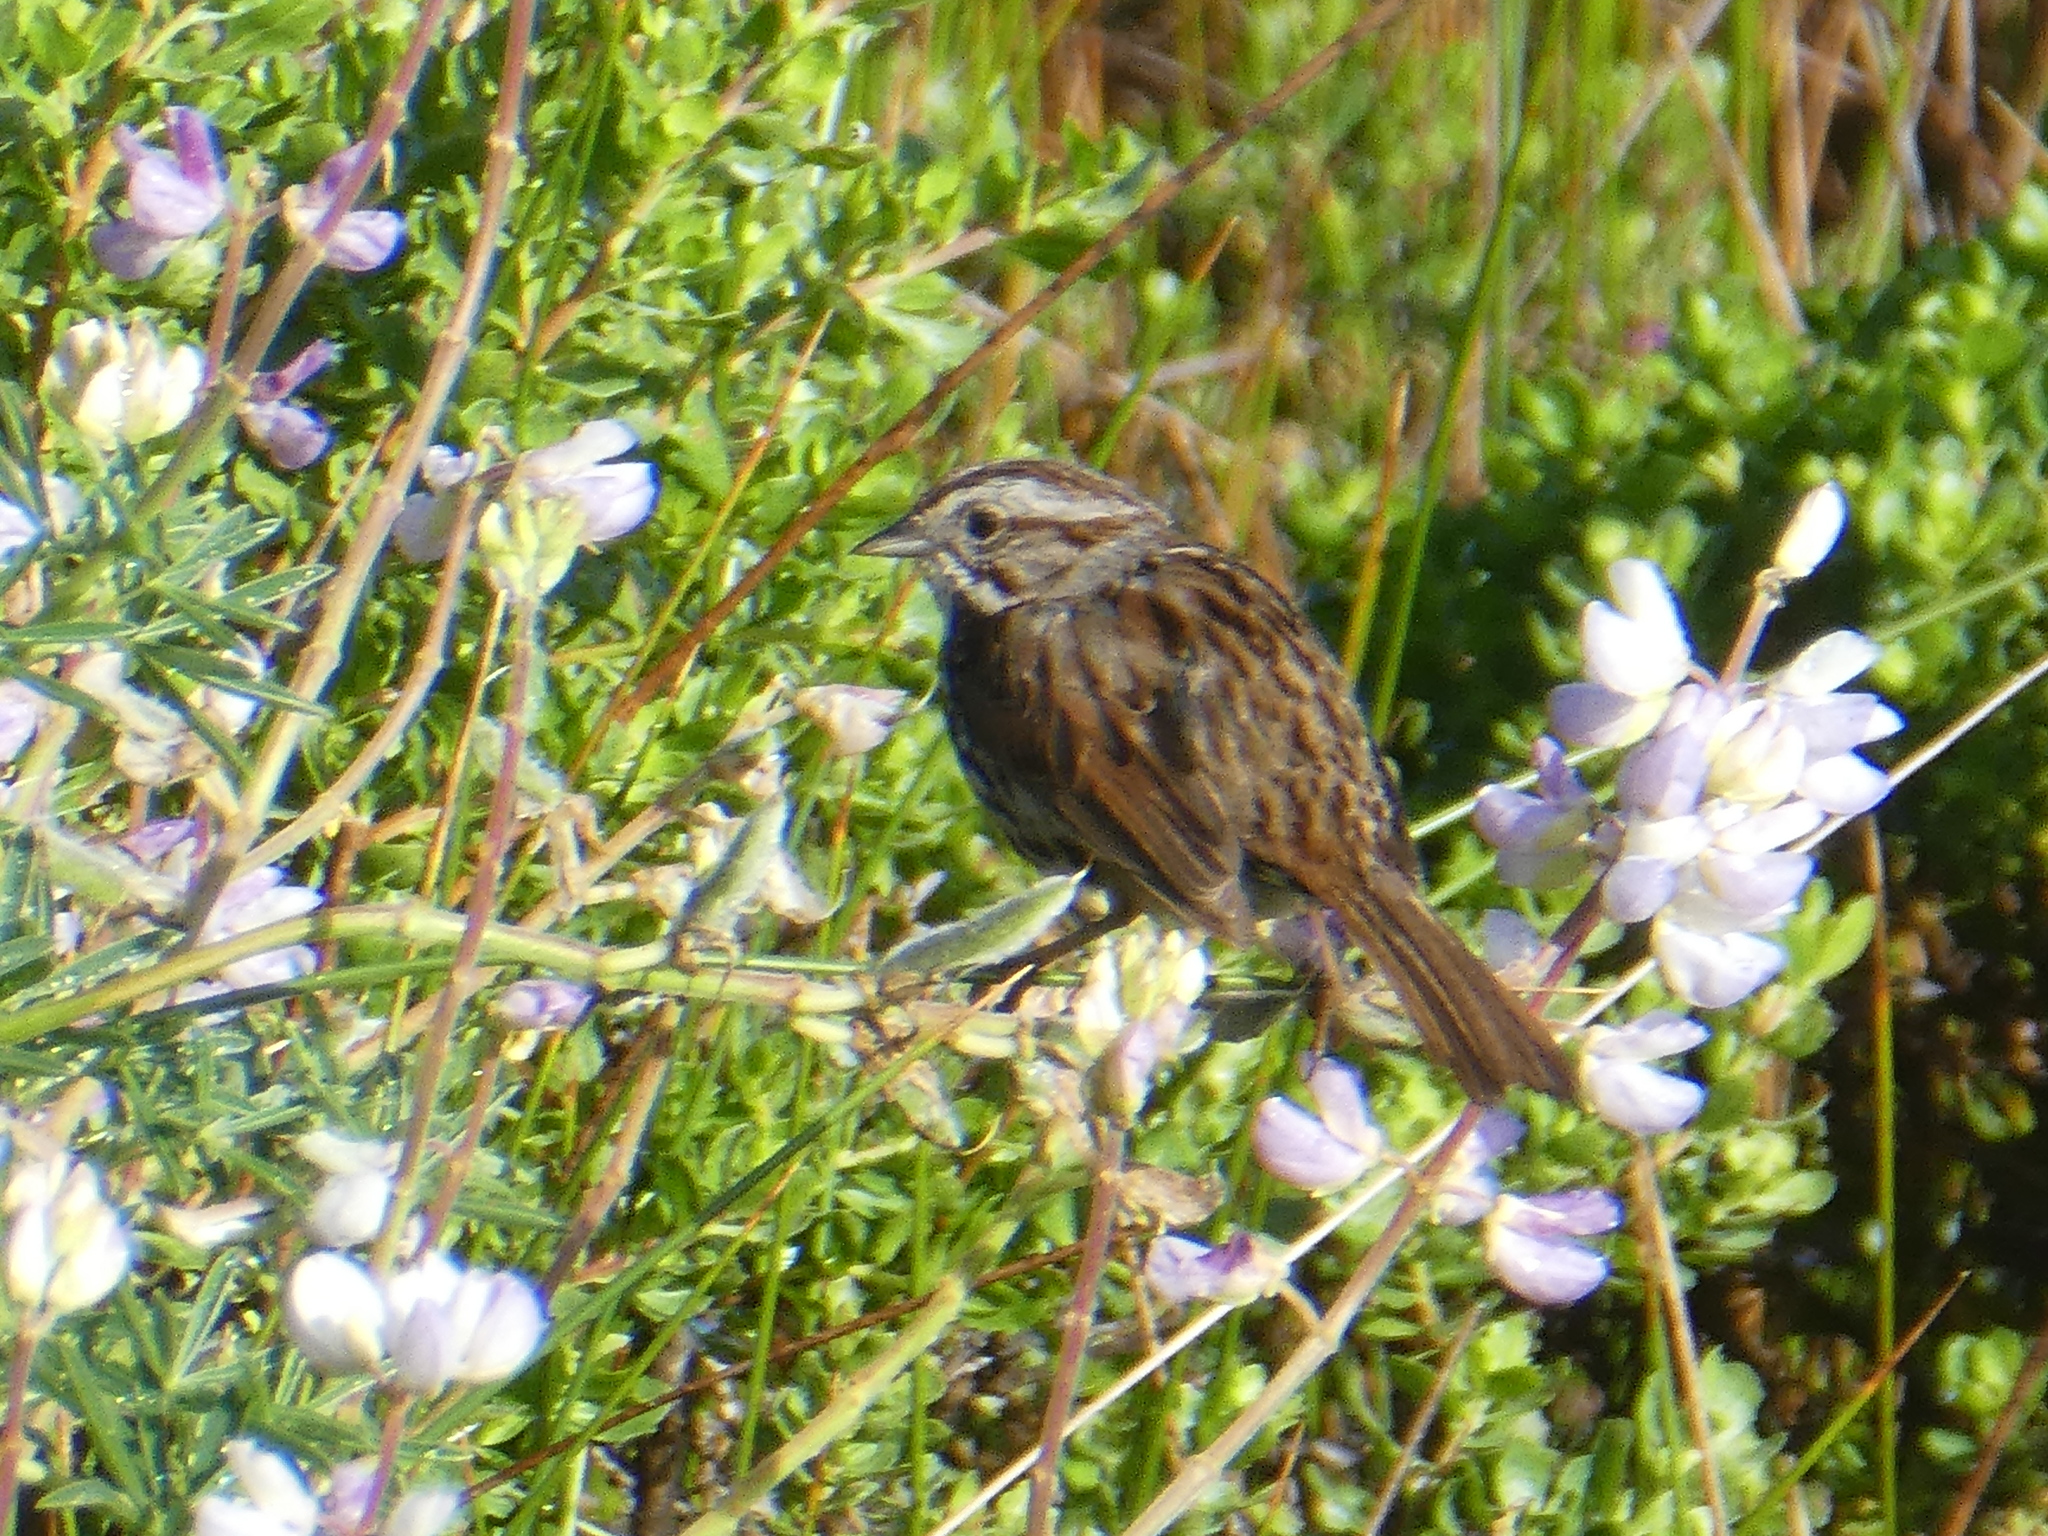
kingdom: Animalia
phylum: Chordata
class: Aves
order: Passeriformes
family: Passerellidae
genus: Melospiza
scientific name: Melospiza melodia
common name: Song sparrow
